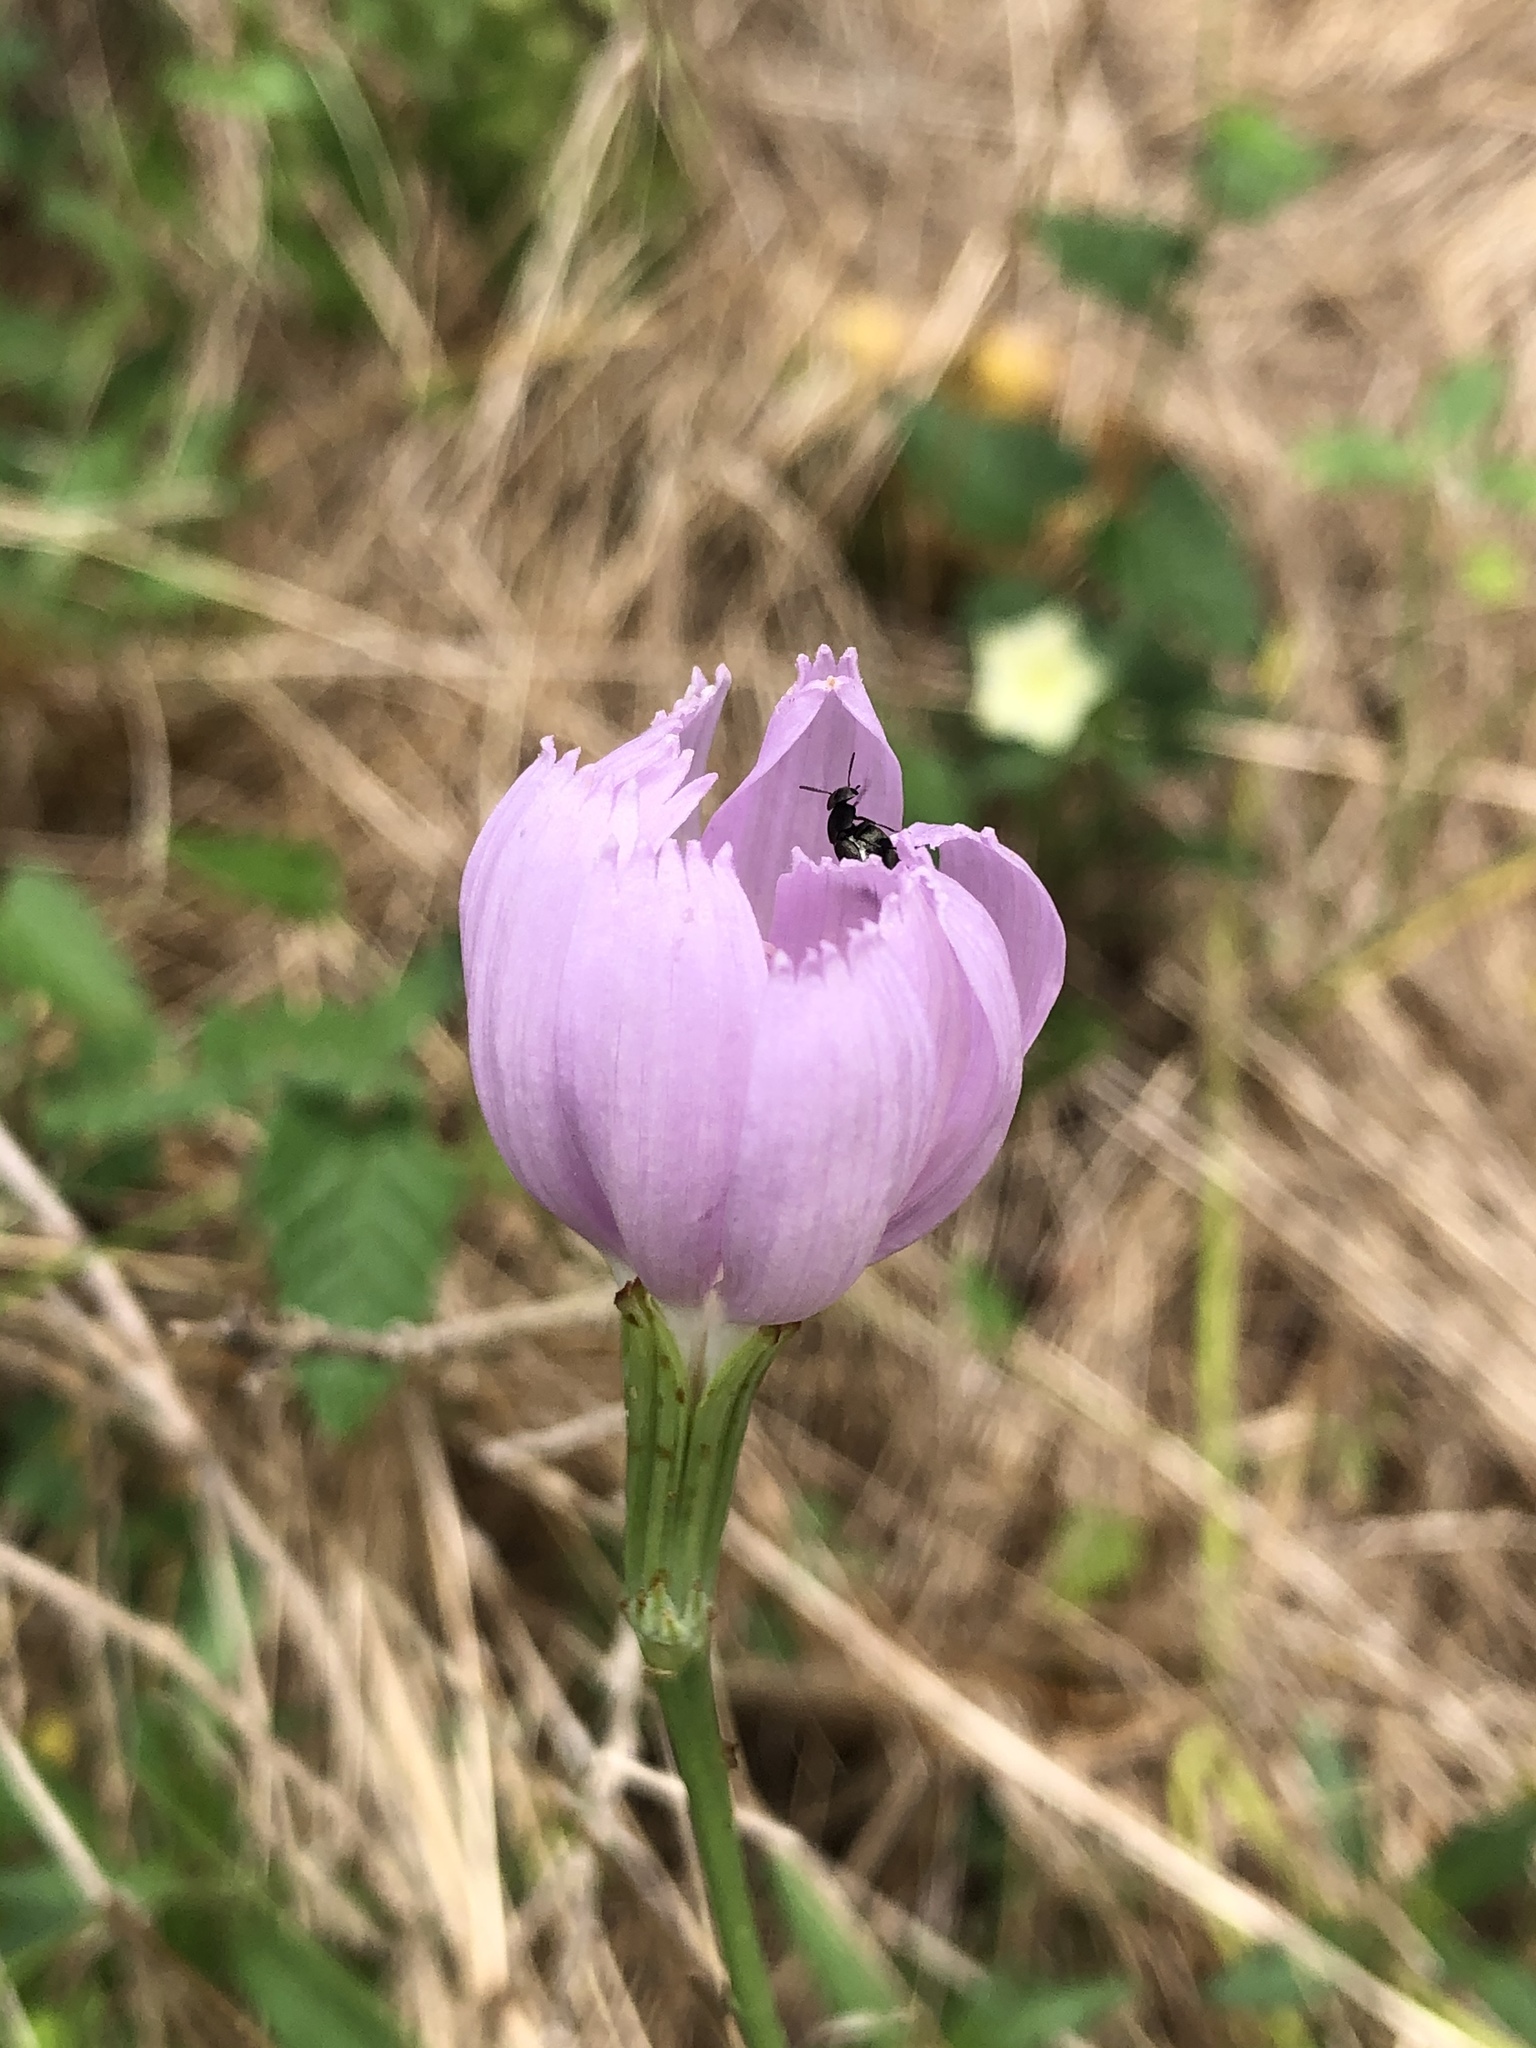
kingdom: Plantae
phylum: Tracheophyta
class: Magnoliopsida
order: Asterales
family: Asteraceae
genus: Lygodesmia
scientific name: Lygodesmia texana
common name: Texas skeleton-plant
